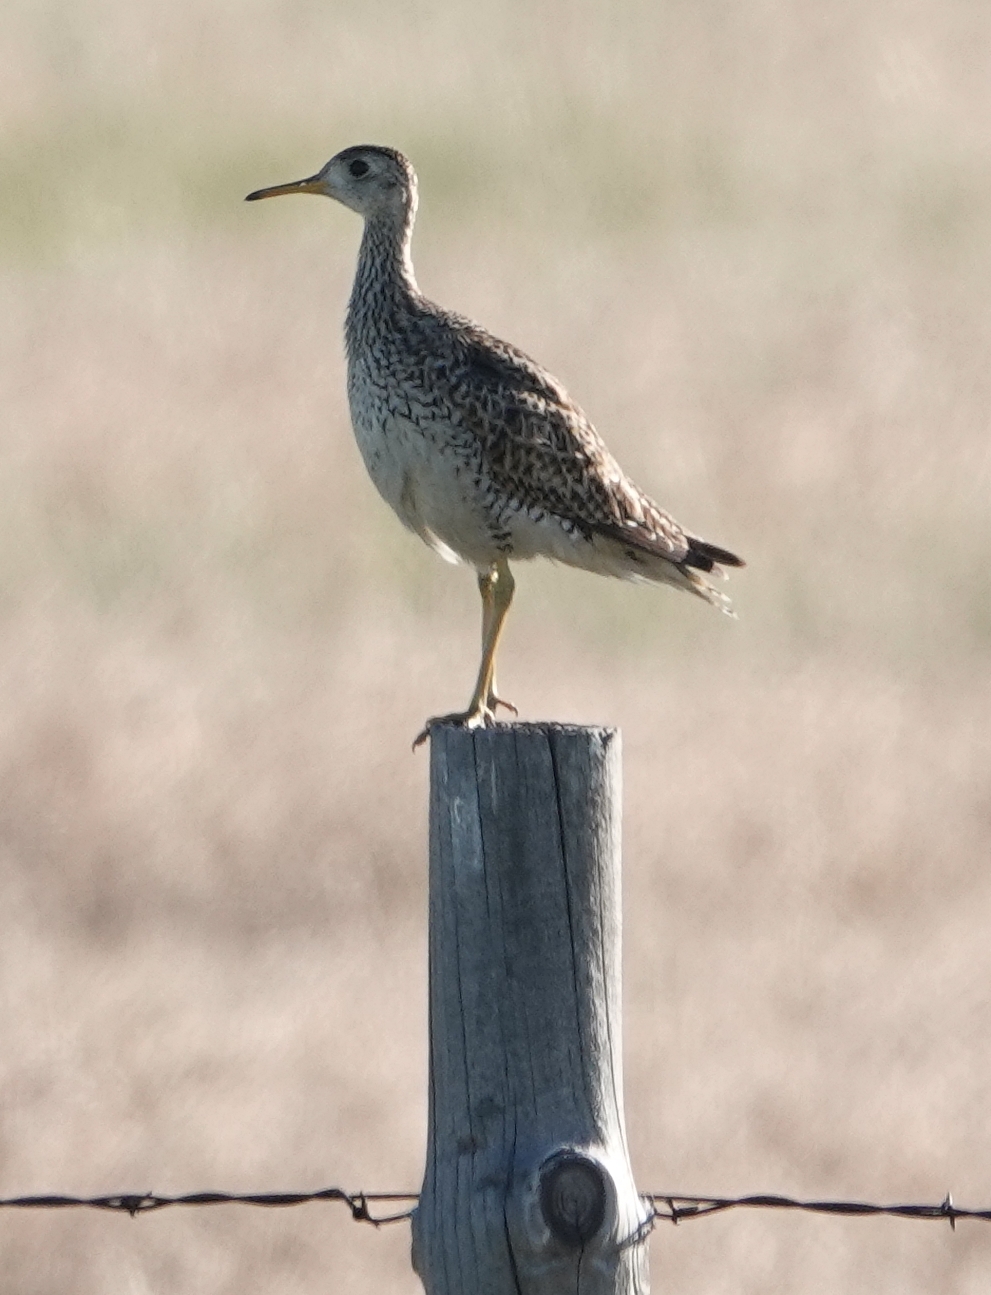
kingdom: Animalia
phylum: Chordata
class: Aves
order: Charadriiformes
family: Scolopacidae
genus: Bartramia
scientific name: Bartramia longicauda
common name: Upland sandpiper
